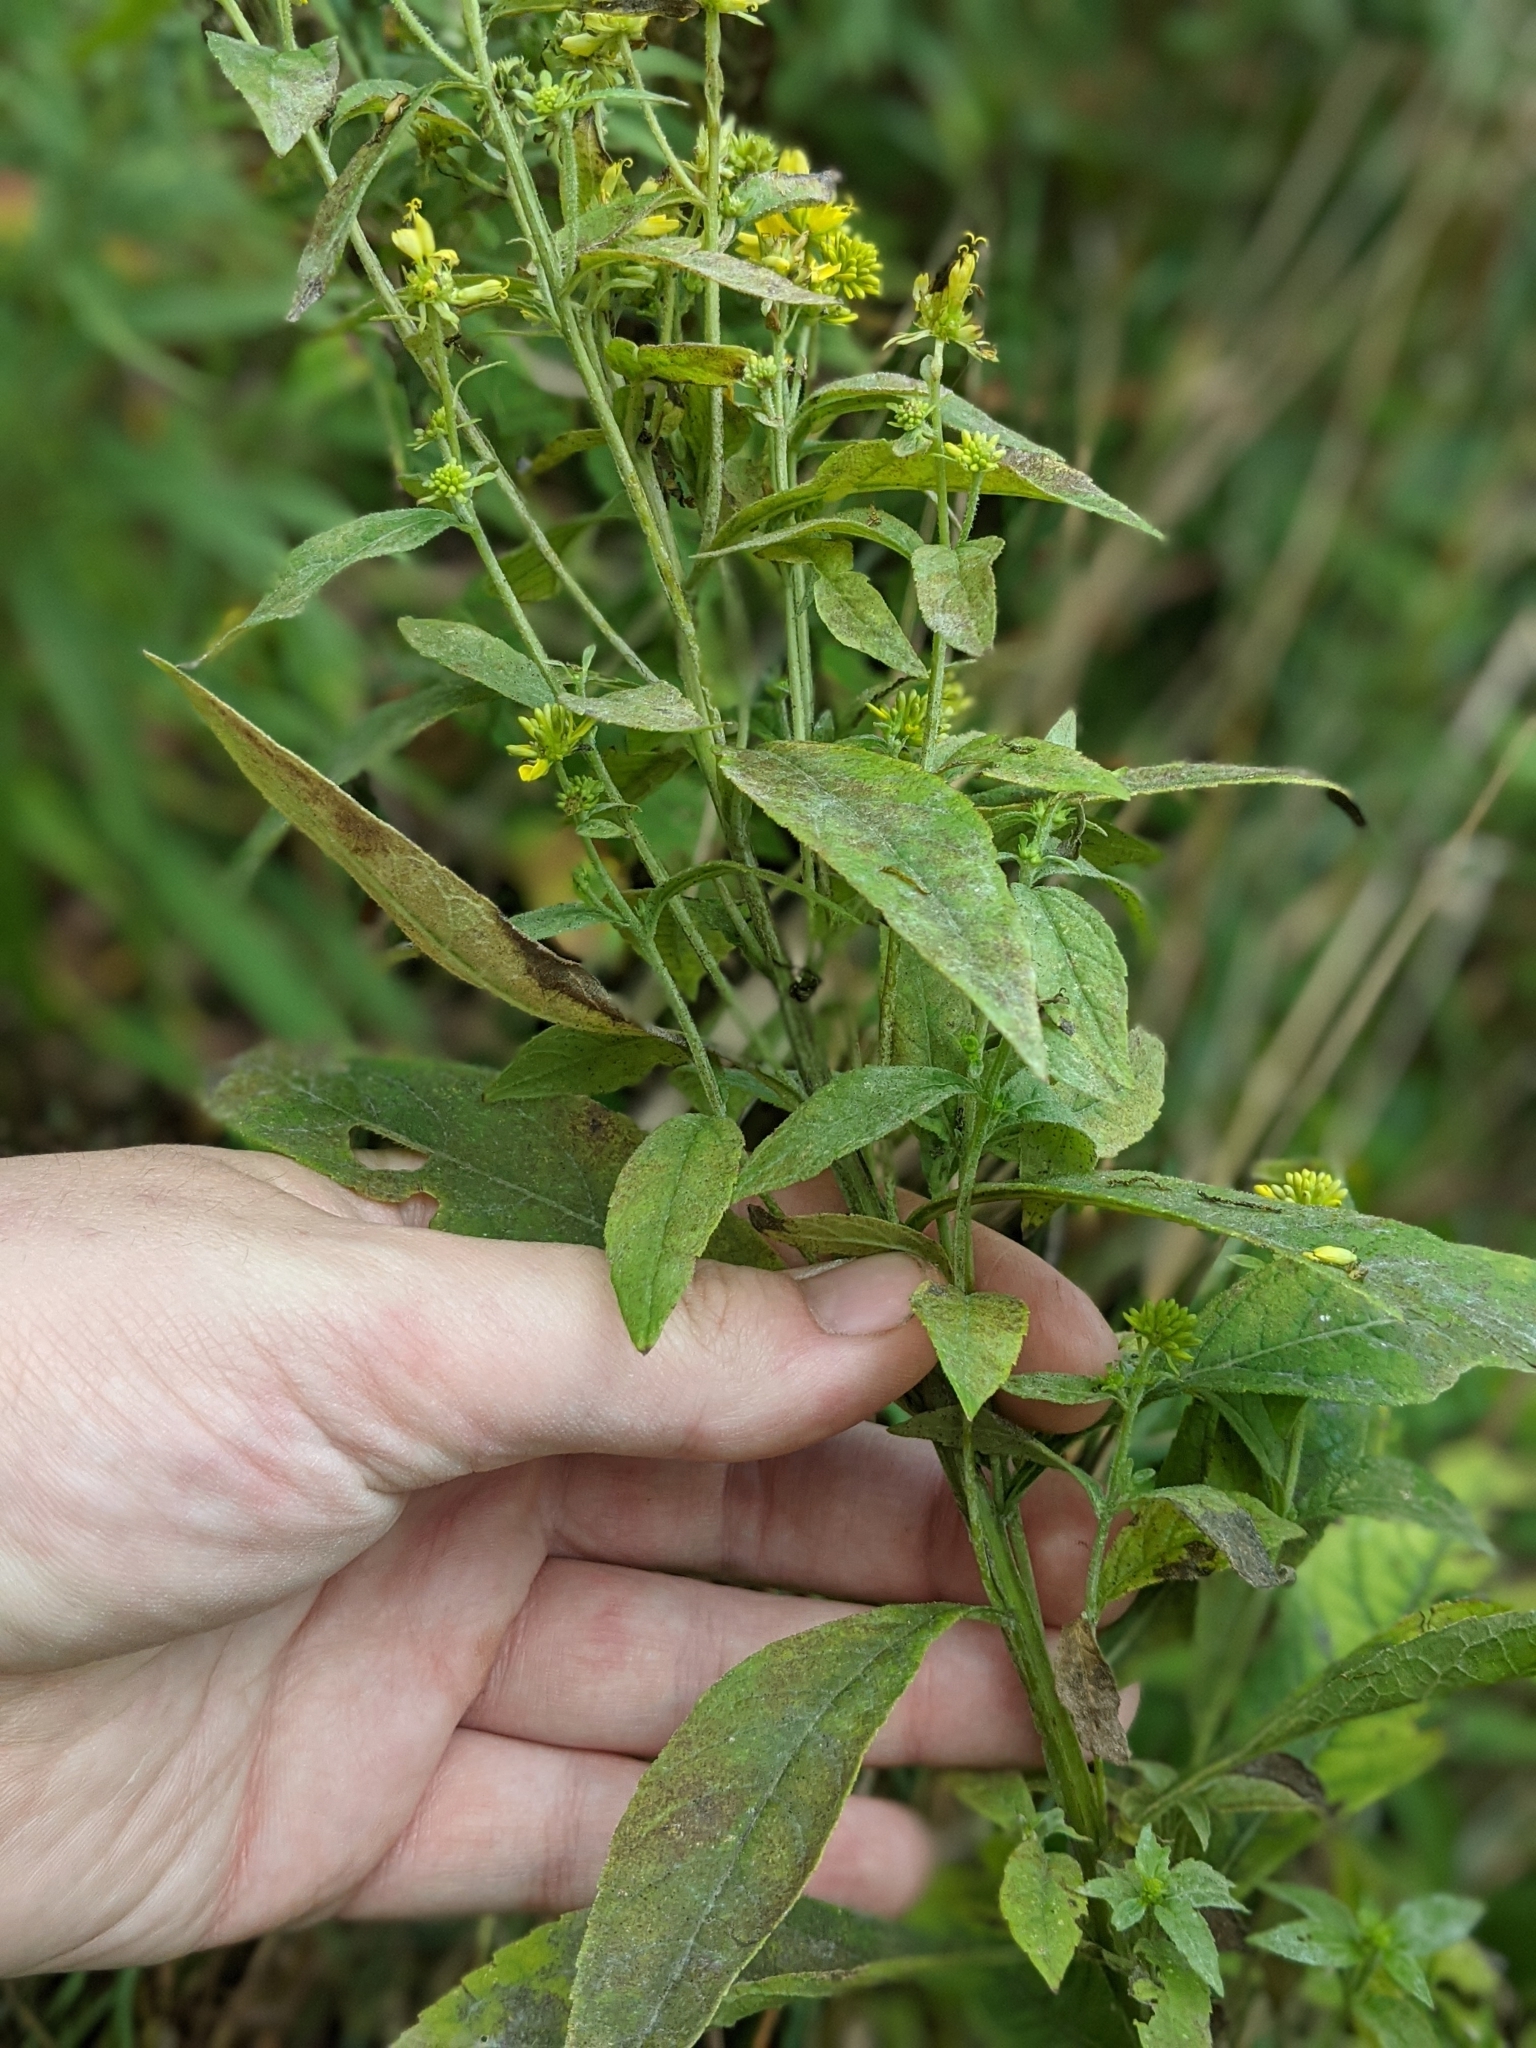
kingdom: Plantae
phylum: Tracheophyta
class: Magnoliopsida
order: Asterales
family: Asteraceae
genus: Verbesina
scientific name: Verbesina alternifolia
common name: Wingstem
